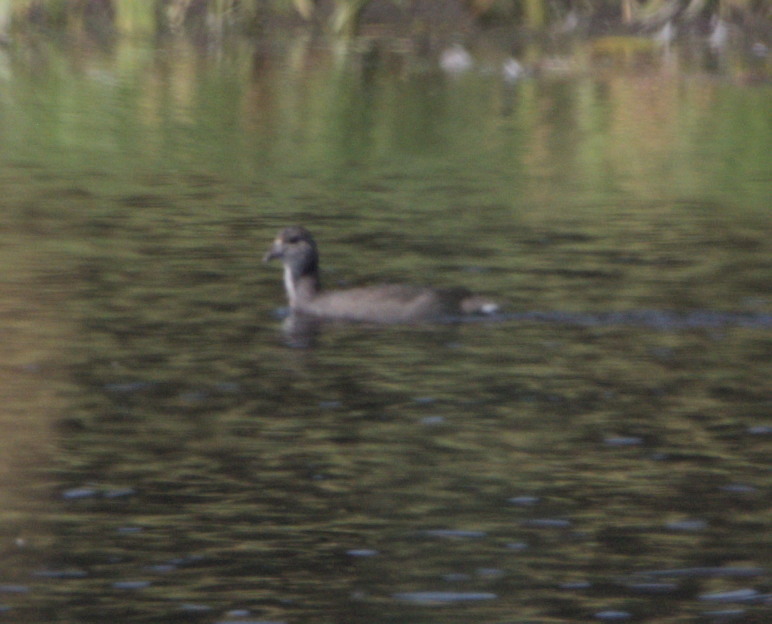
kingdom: Animalia
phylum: Chordata
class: Aves
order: Gruiformes
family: Rallidae
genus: Fulica
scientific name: Fulica americana
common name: American coot
